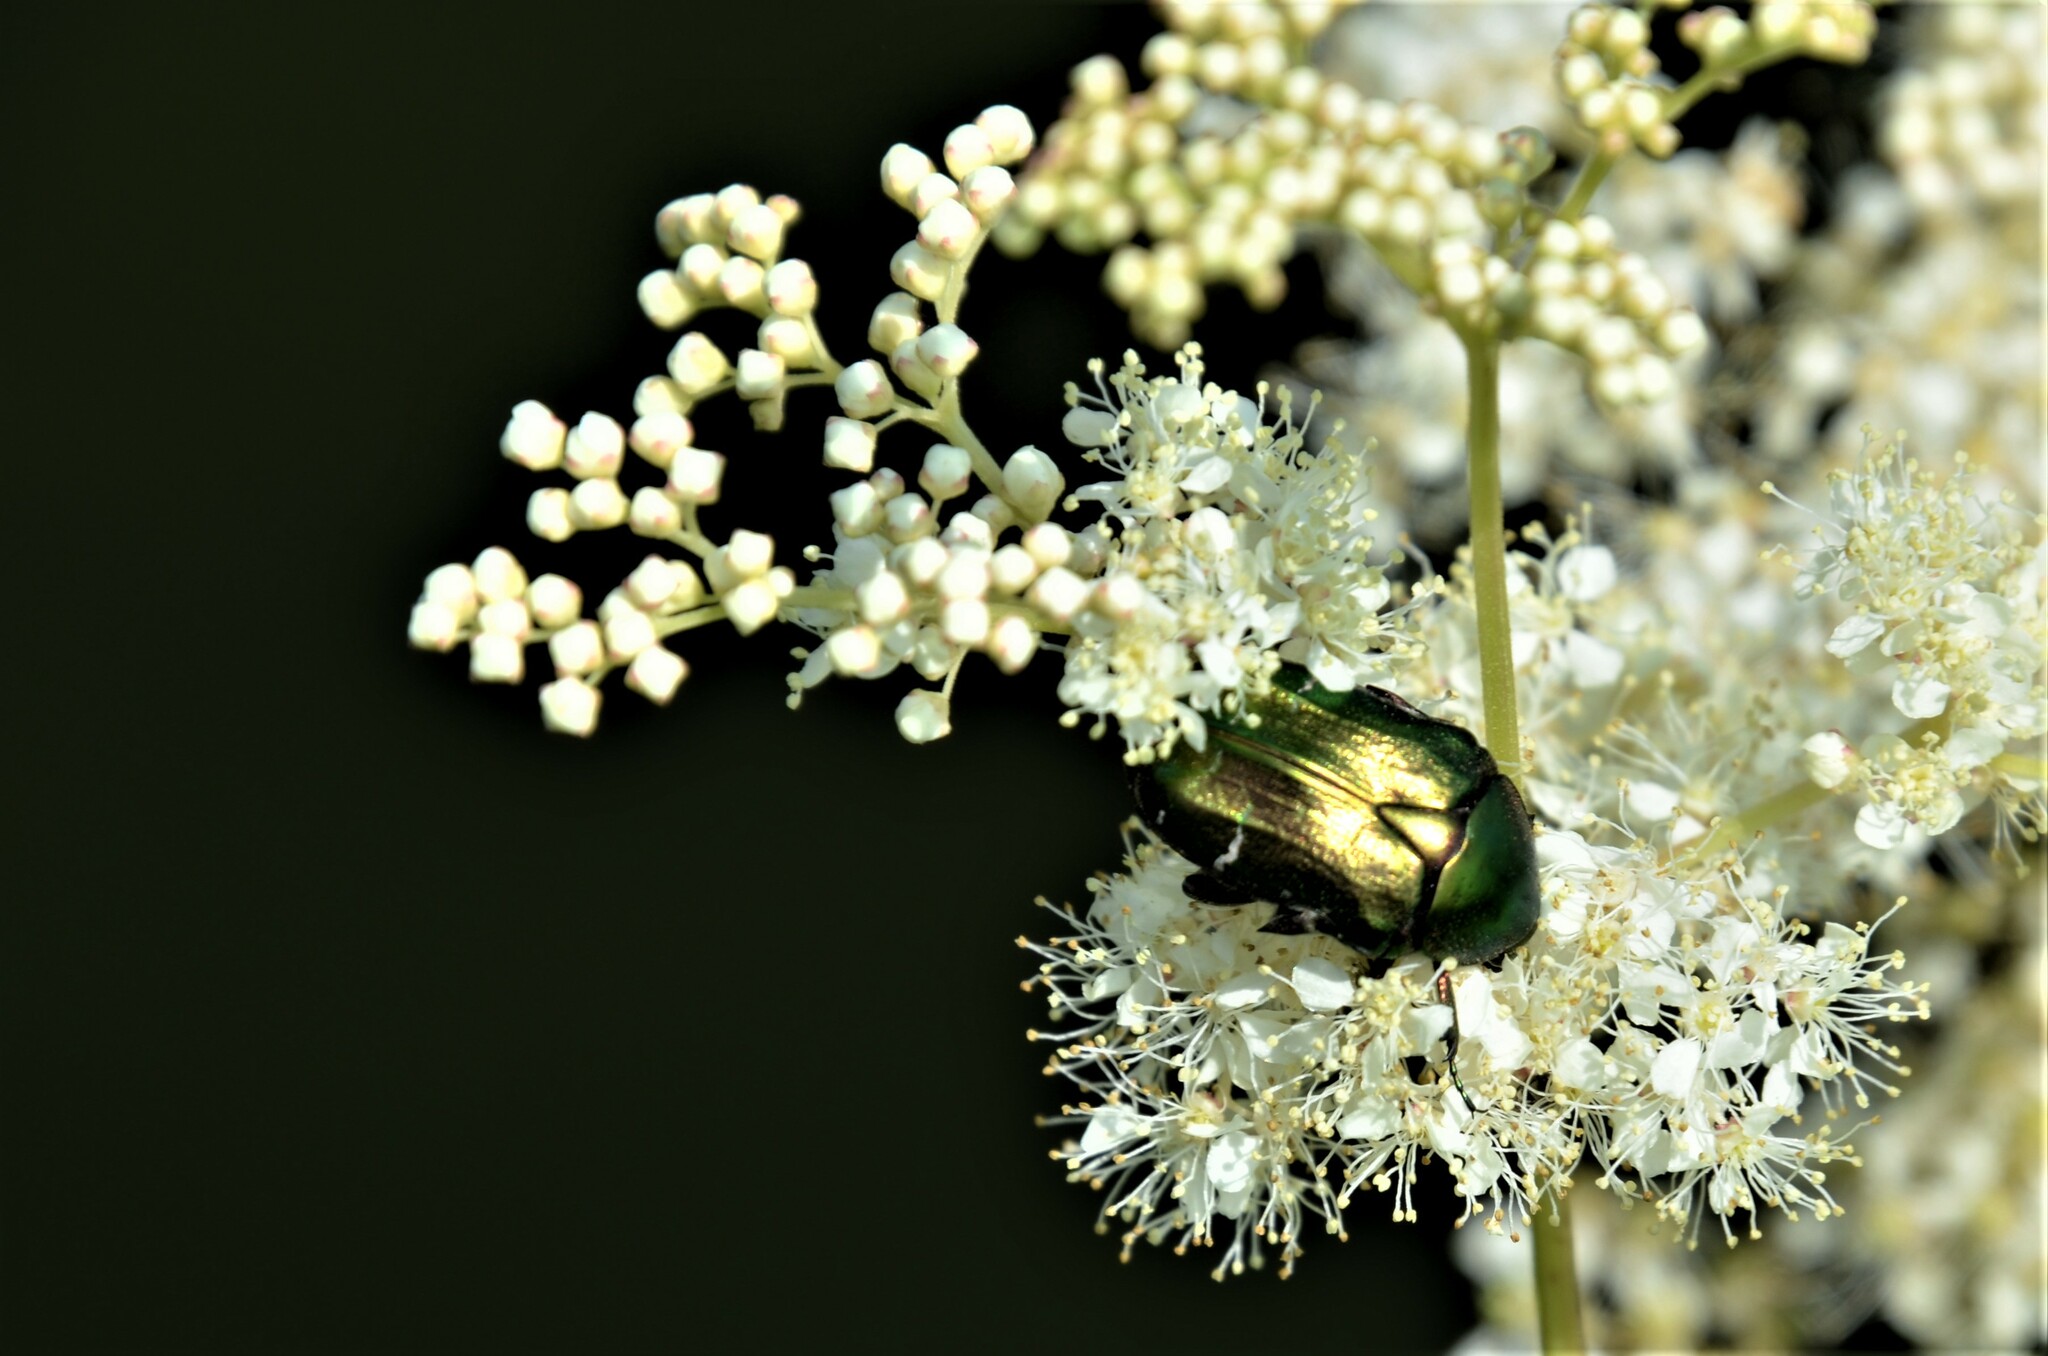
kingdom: Animalia
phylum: Arthropoda
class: Insecta
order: Coleoptera
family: Scarabaeidae
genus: Cetonia
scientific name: Cetonia aurata
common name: Rose chafer
